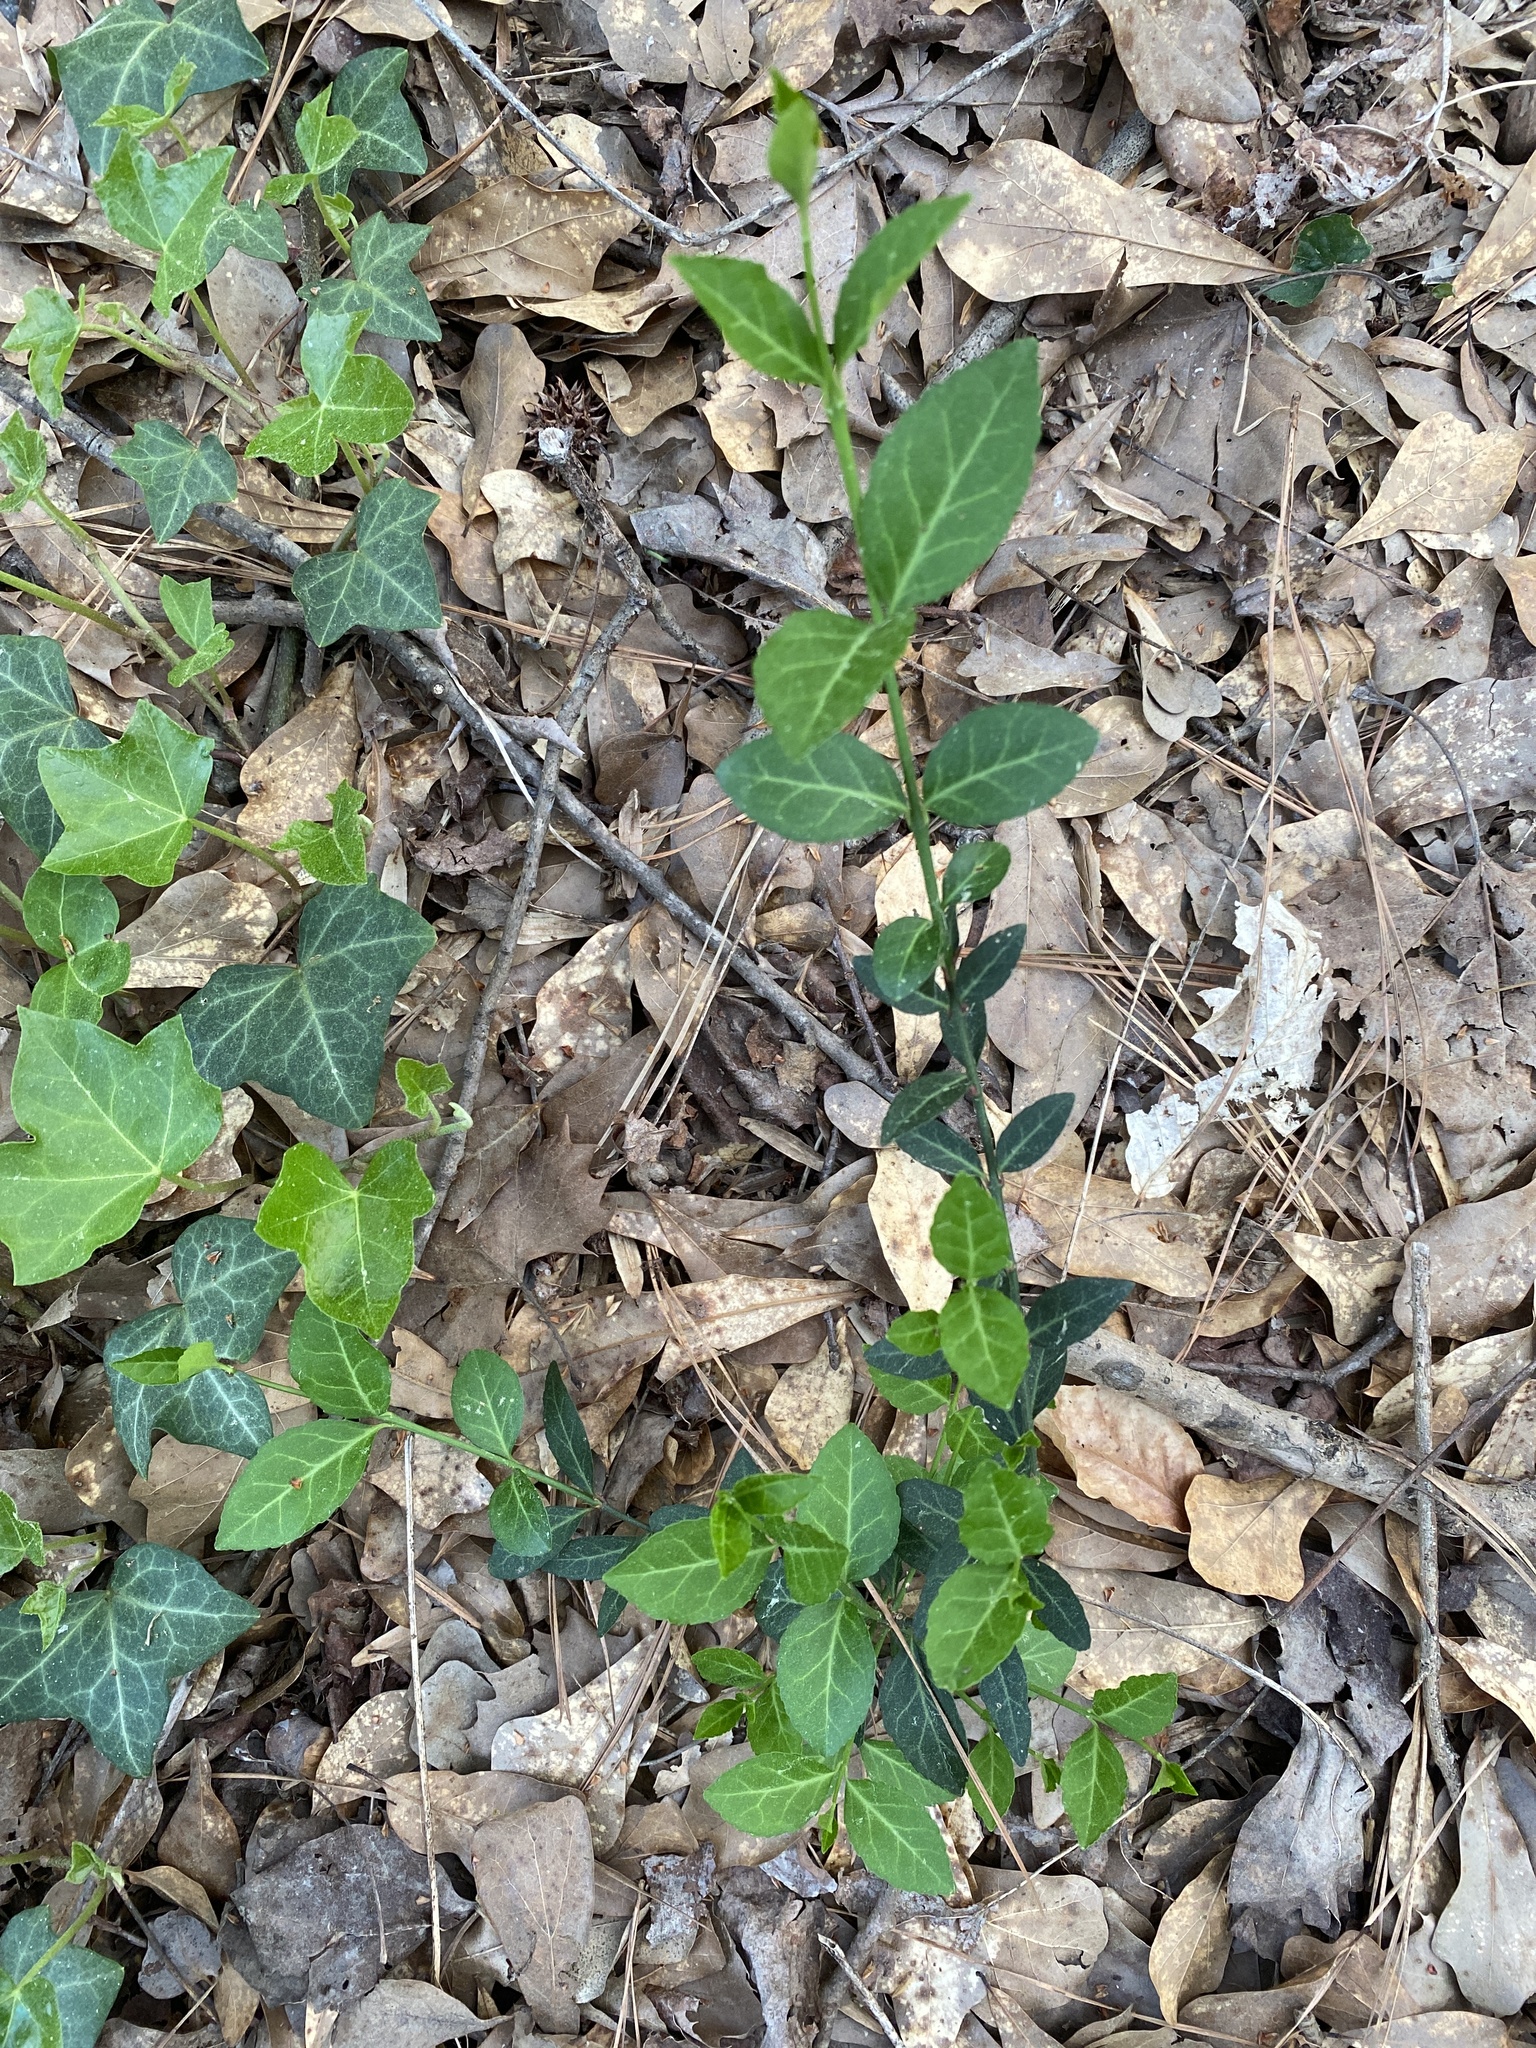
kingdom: Plantae
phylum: Tracheophyta
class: Magnoliopsida
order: Celastrales
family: Celastraceae
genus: Euonymus
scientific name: Euonymus fortunei
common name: Climbing euonymus
